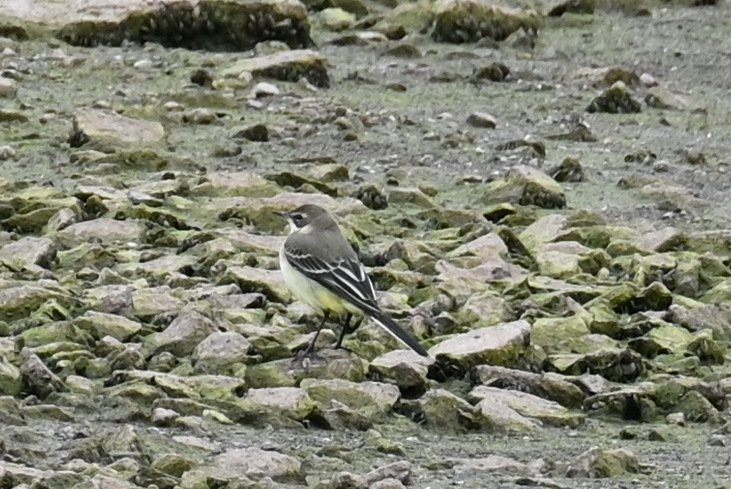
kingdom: Animalia
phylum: Chordata
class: Aves
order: Passeriformes
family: Motacillidae
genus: Motacilla
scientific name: Motacilla flava
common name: Western yellow wagtail
